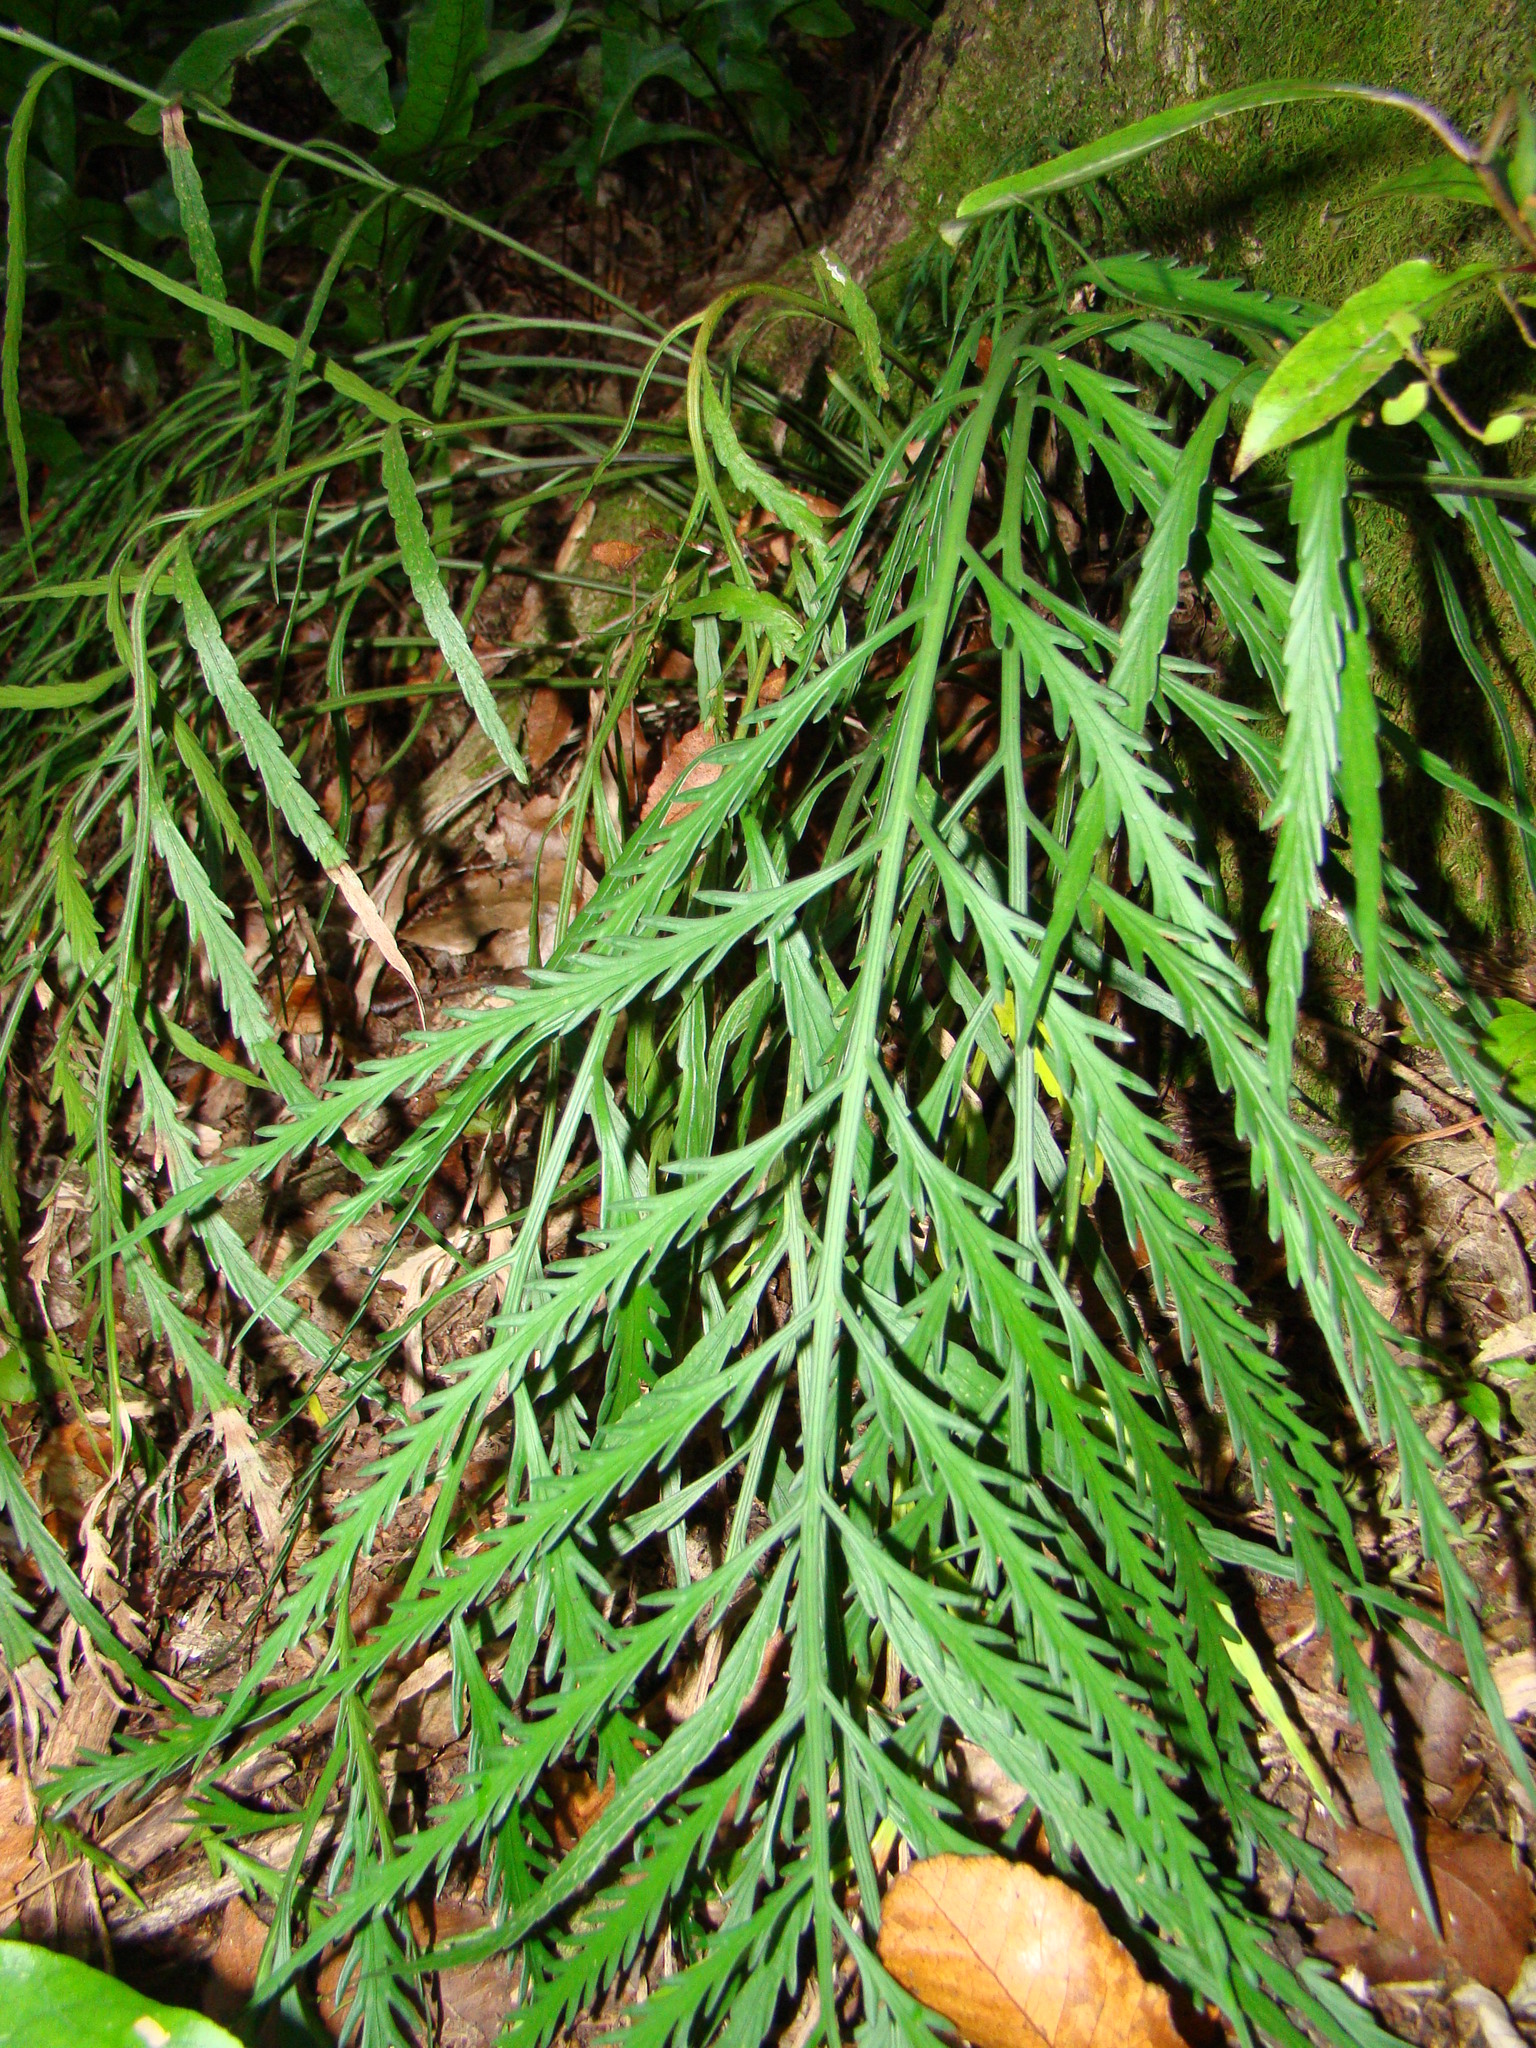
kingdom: Plantae
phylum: Tracheophyta
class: Polypodiopsida
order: Polypodiales
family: Aspleniaceae
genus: Asplenium
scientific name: Asplenium flaccidum
